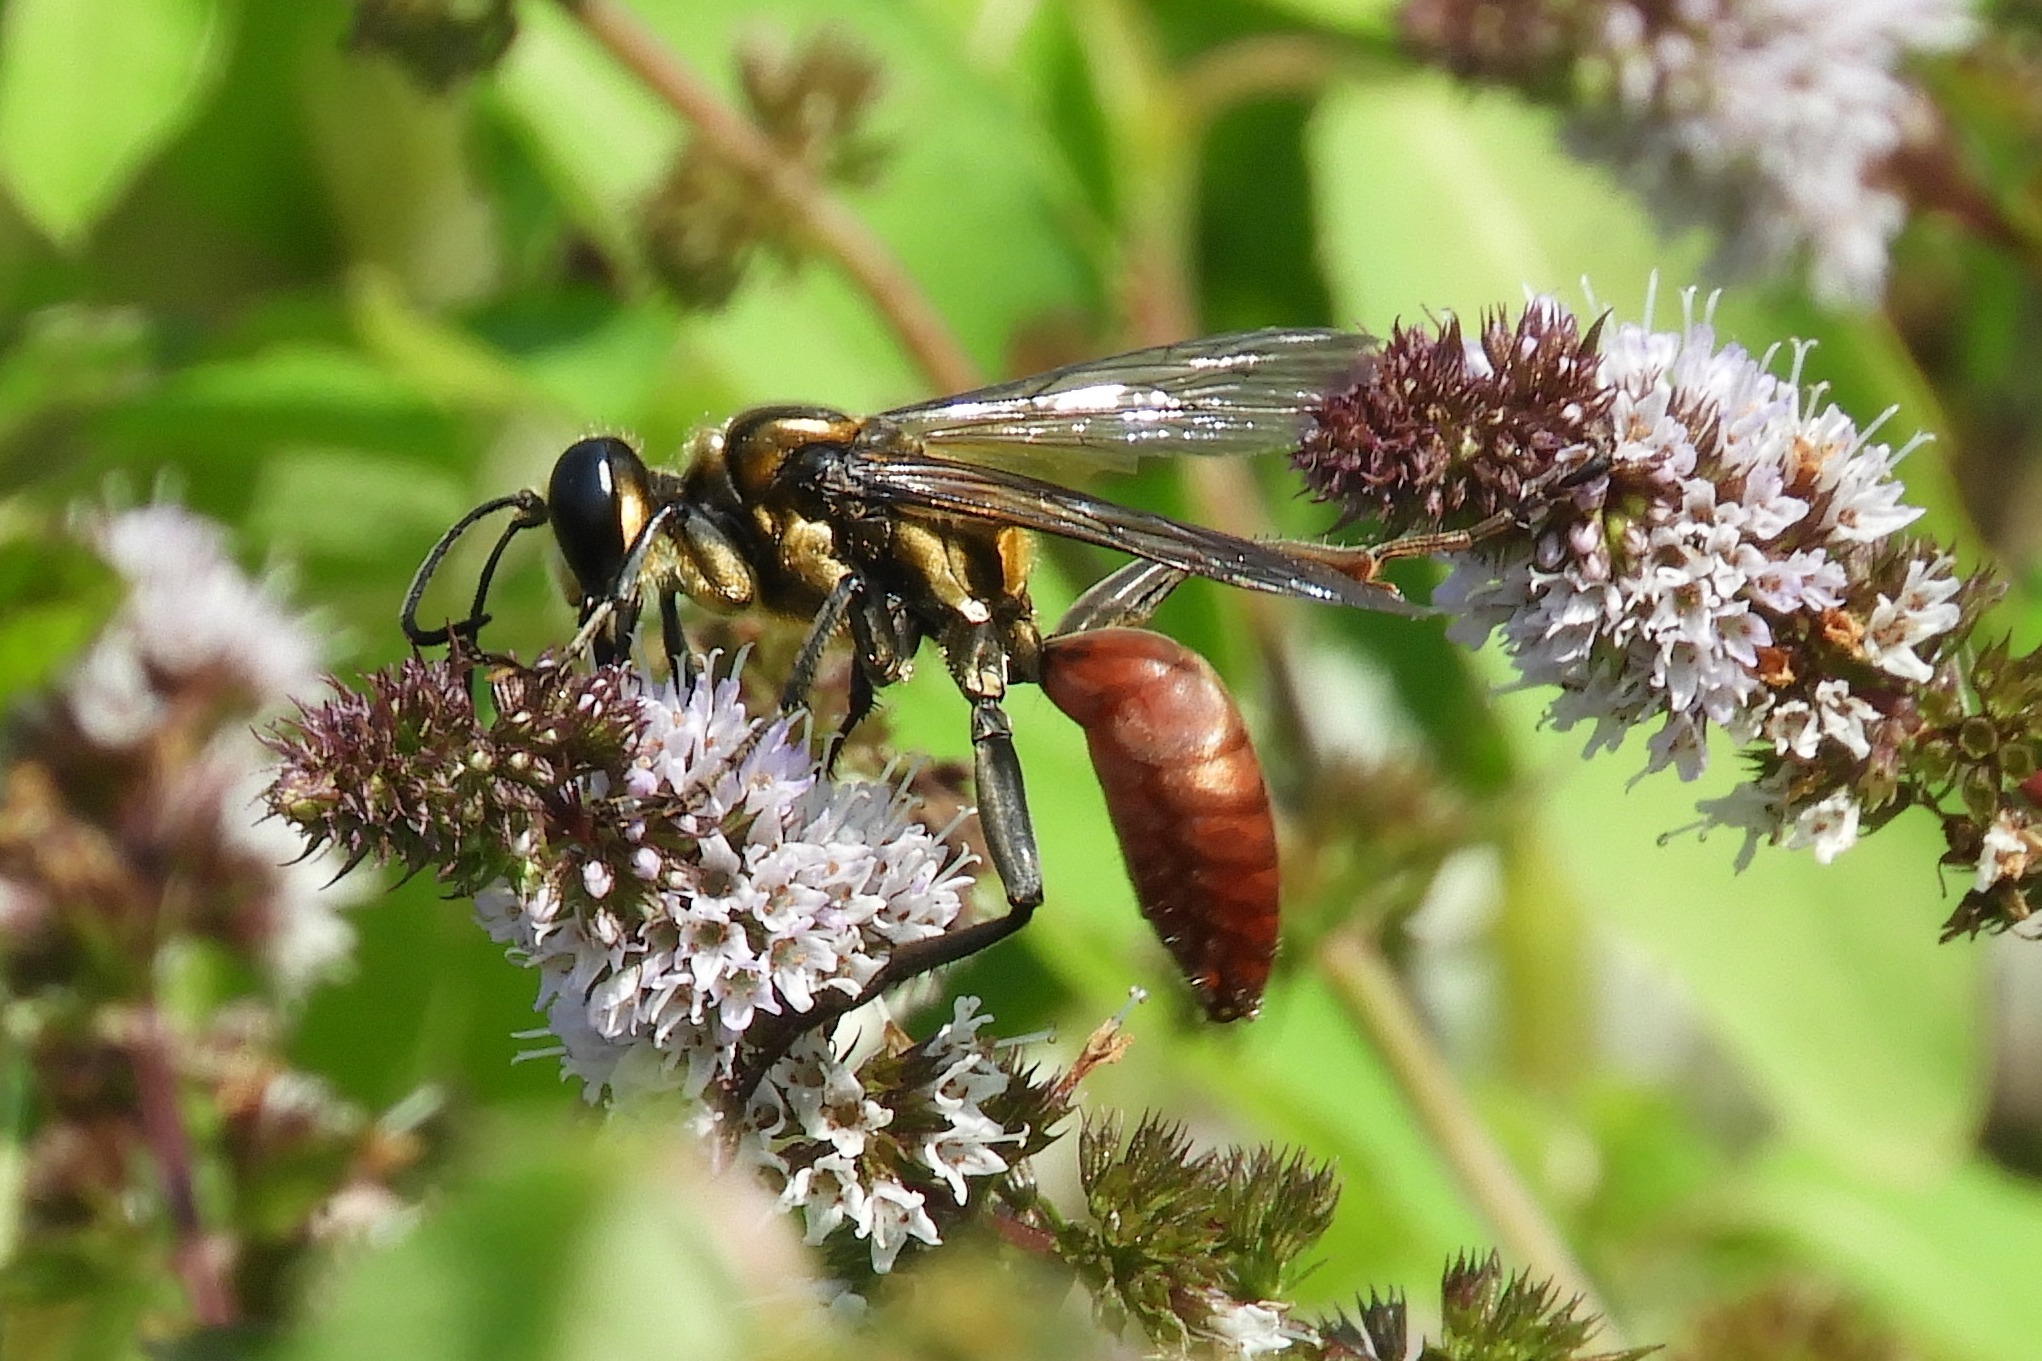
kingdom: Animalia
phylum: Arthropoda
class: Insecta
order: Hymenoptera
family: Sphecidae
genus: Sphex
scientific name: Sphex habenus
